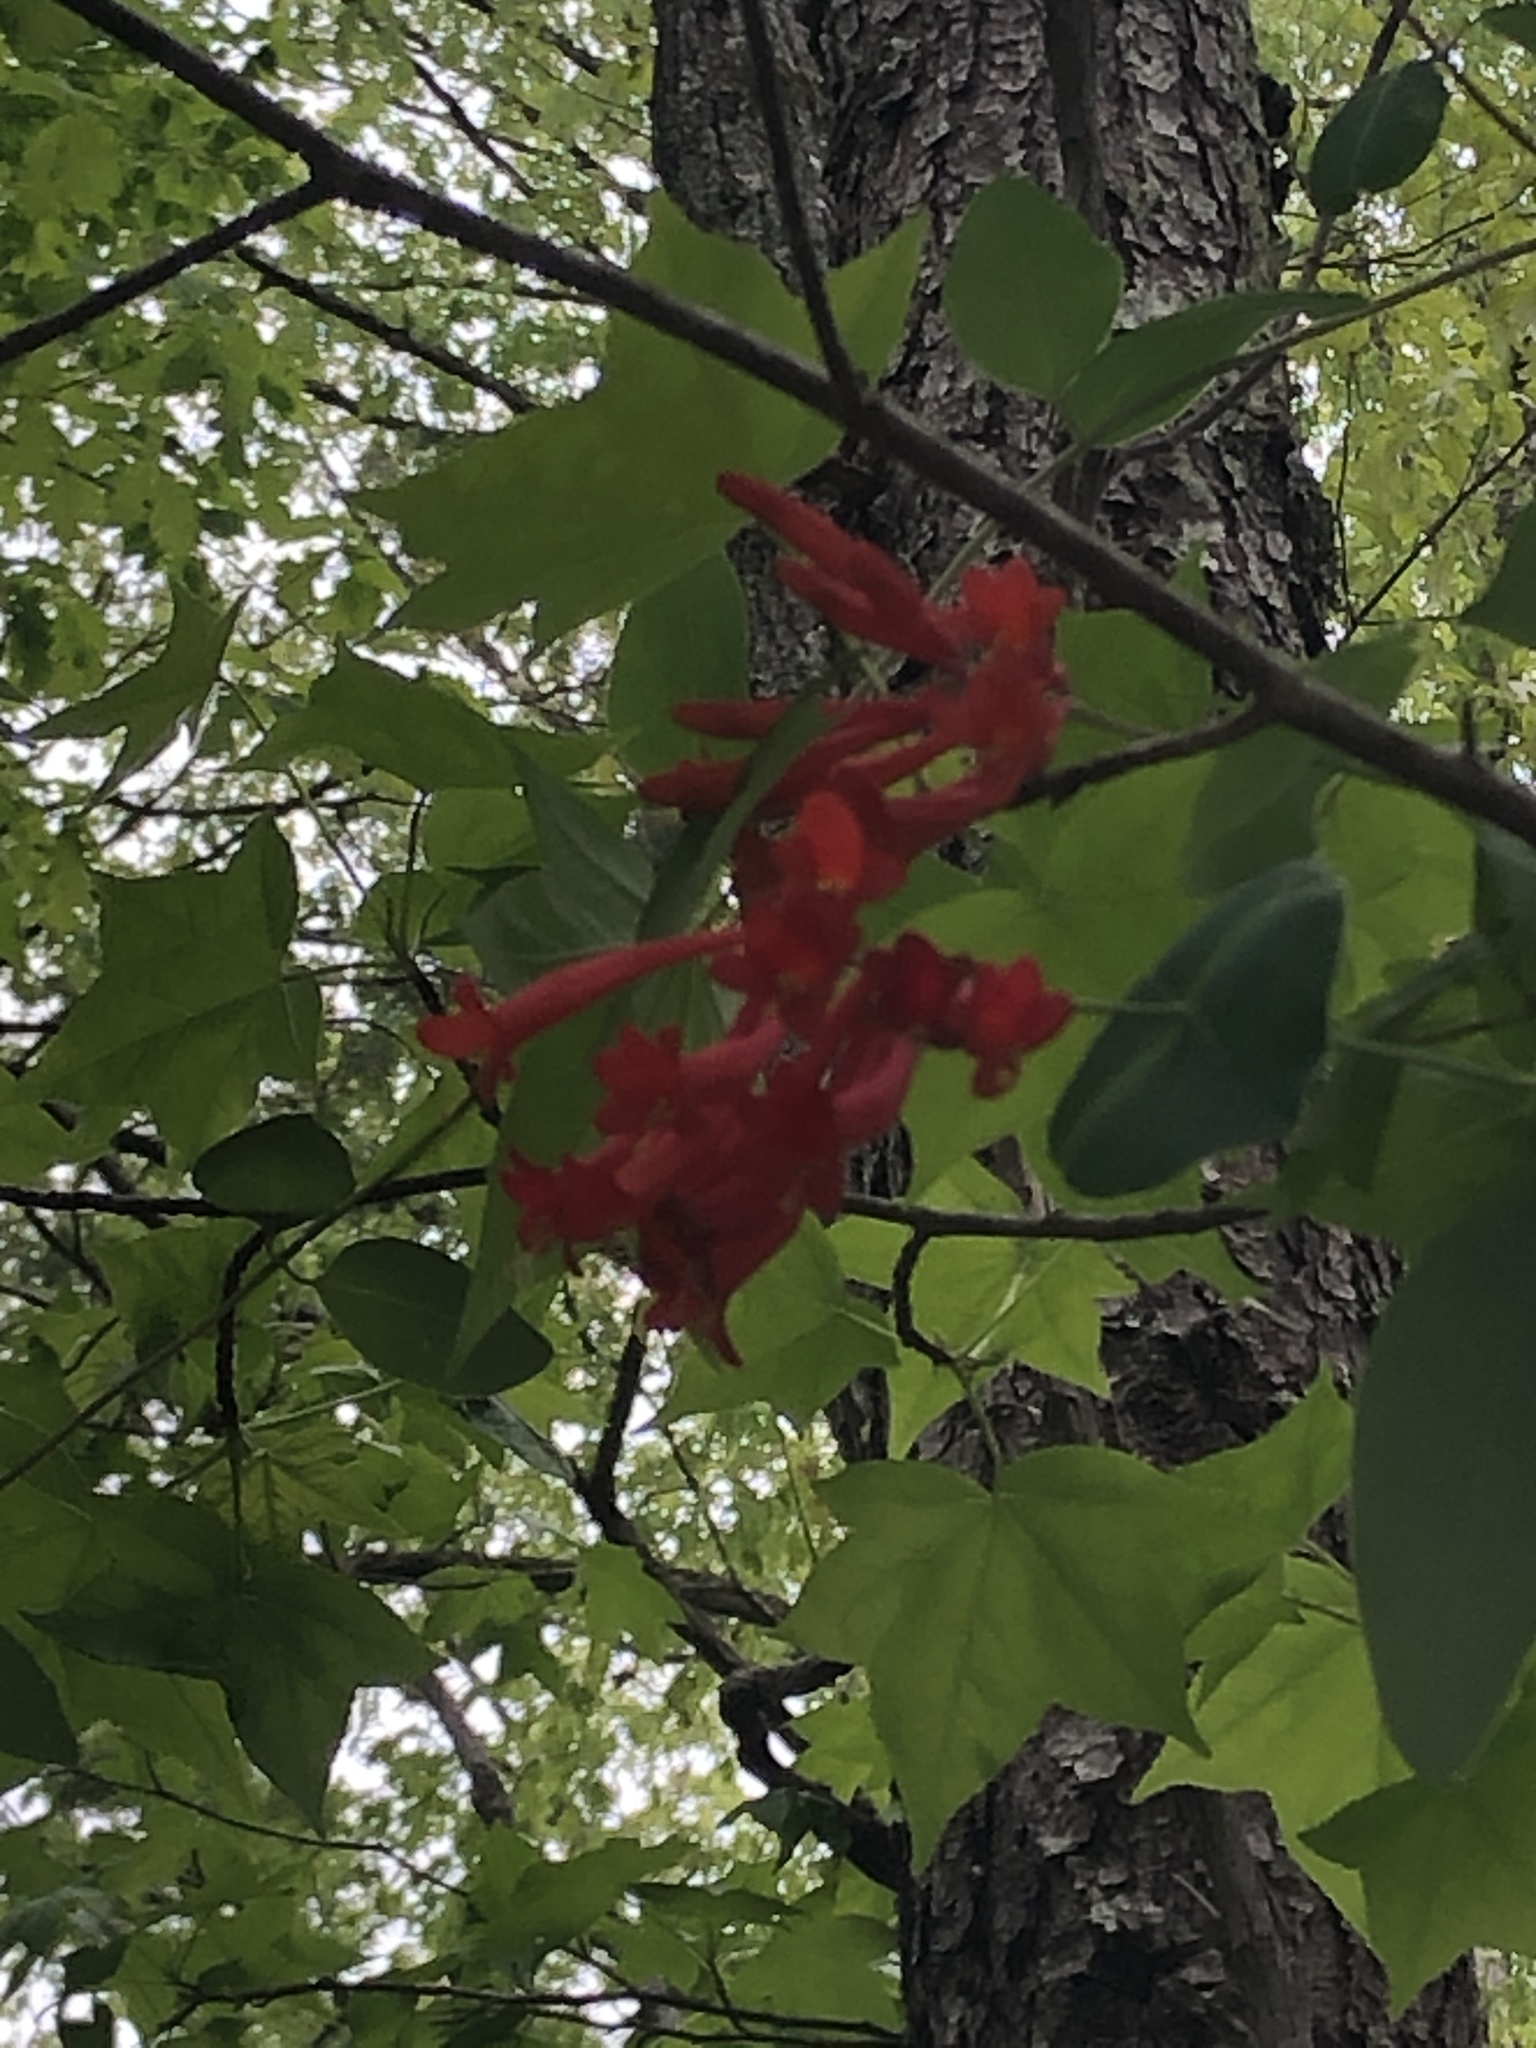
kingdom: Plantae
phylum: Tracheophyta
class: Magnoliopsida
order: Dipsacales
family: Caprifoliaceae
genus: Lonicera
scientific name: Lonicera sempervirens
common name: Coral honeysuckle
